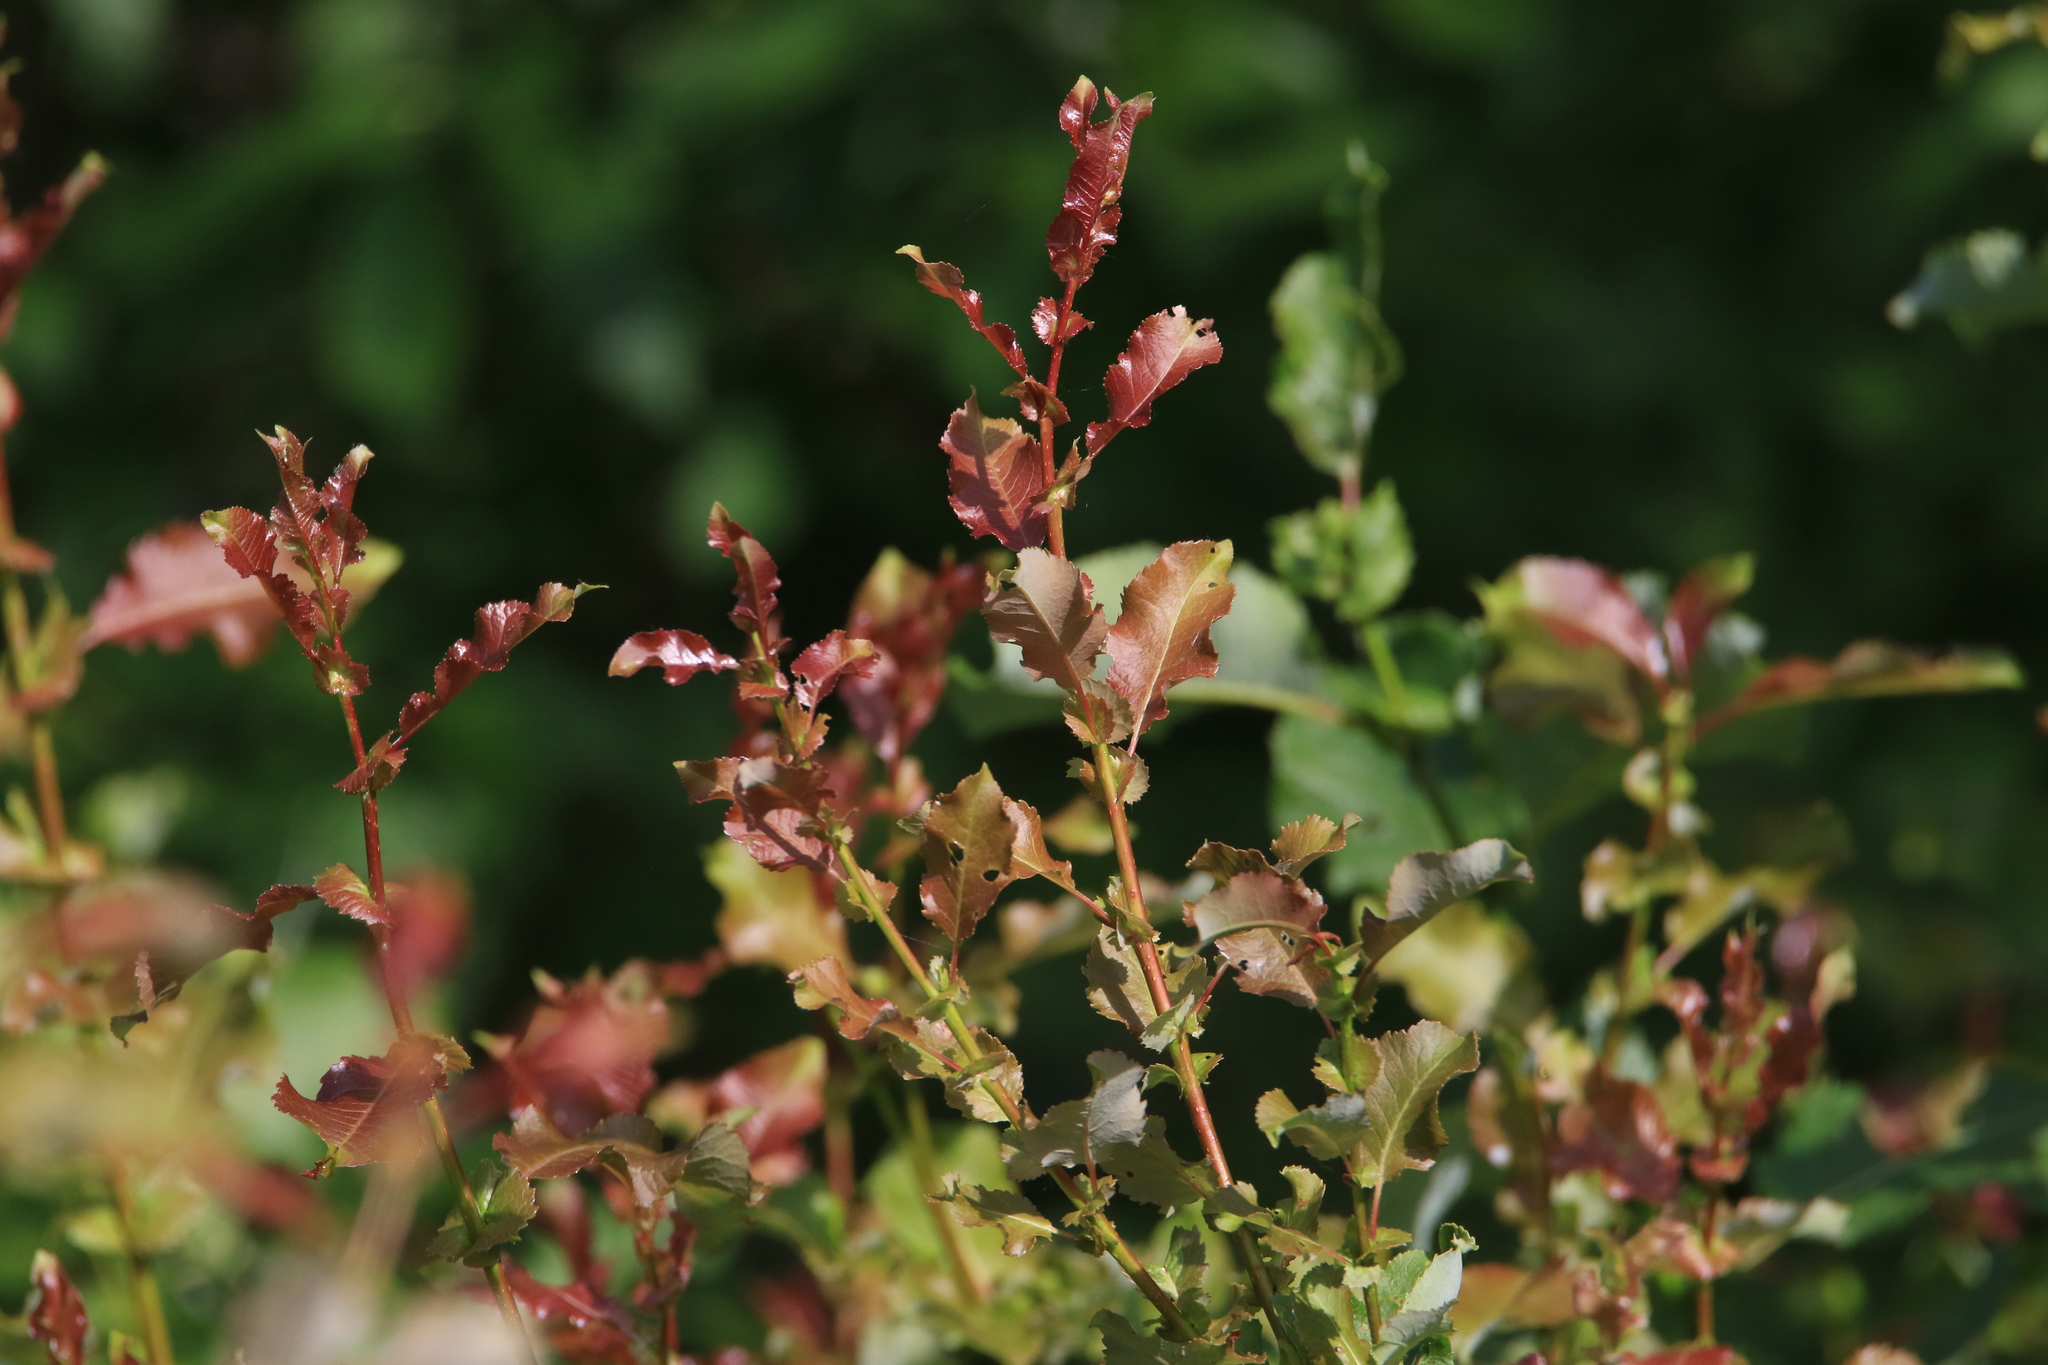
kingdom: Plantae
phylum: Tracheophyta
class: Magnoliopsida
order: Malpighiales
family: Salicaceae
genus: Salix
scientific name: Salix pyrolifolia
